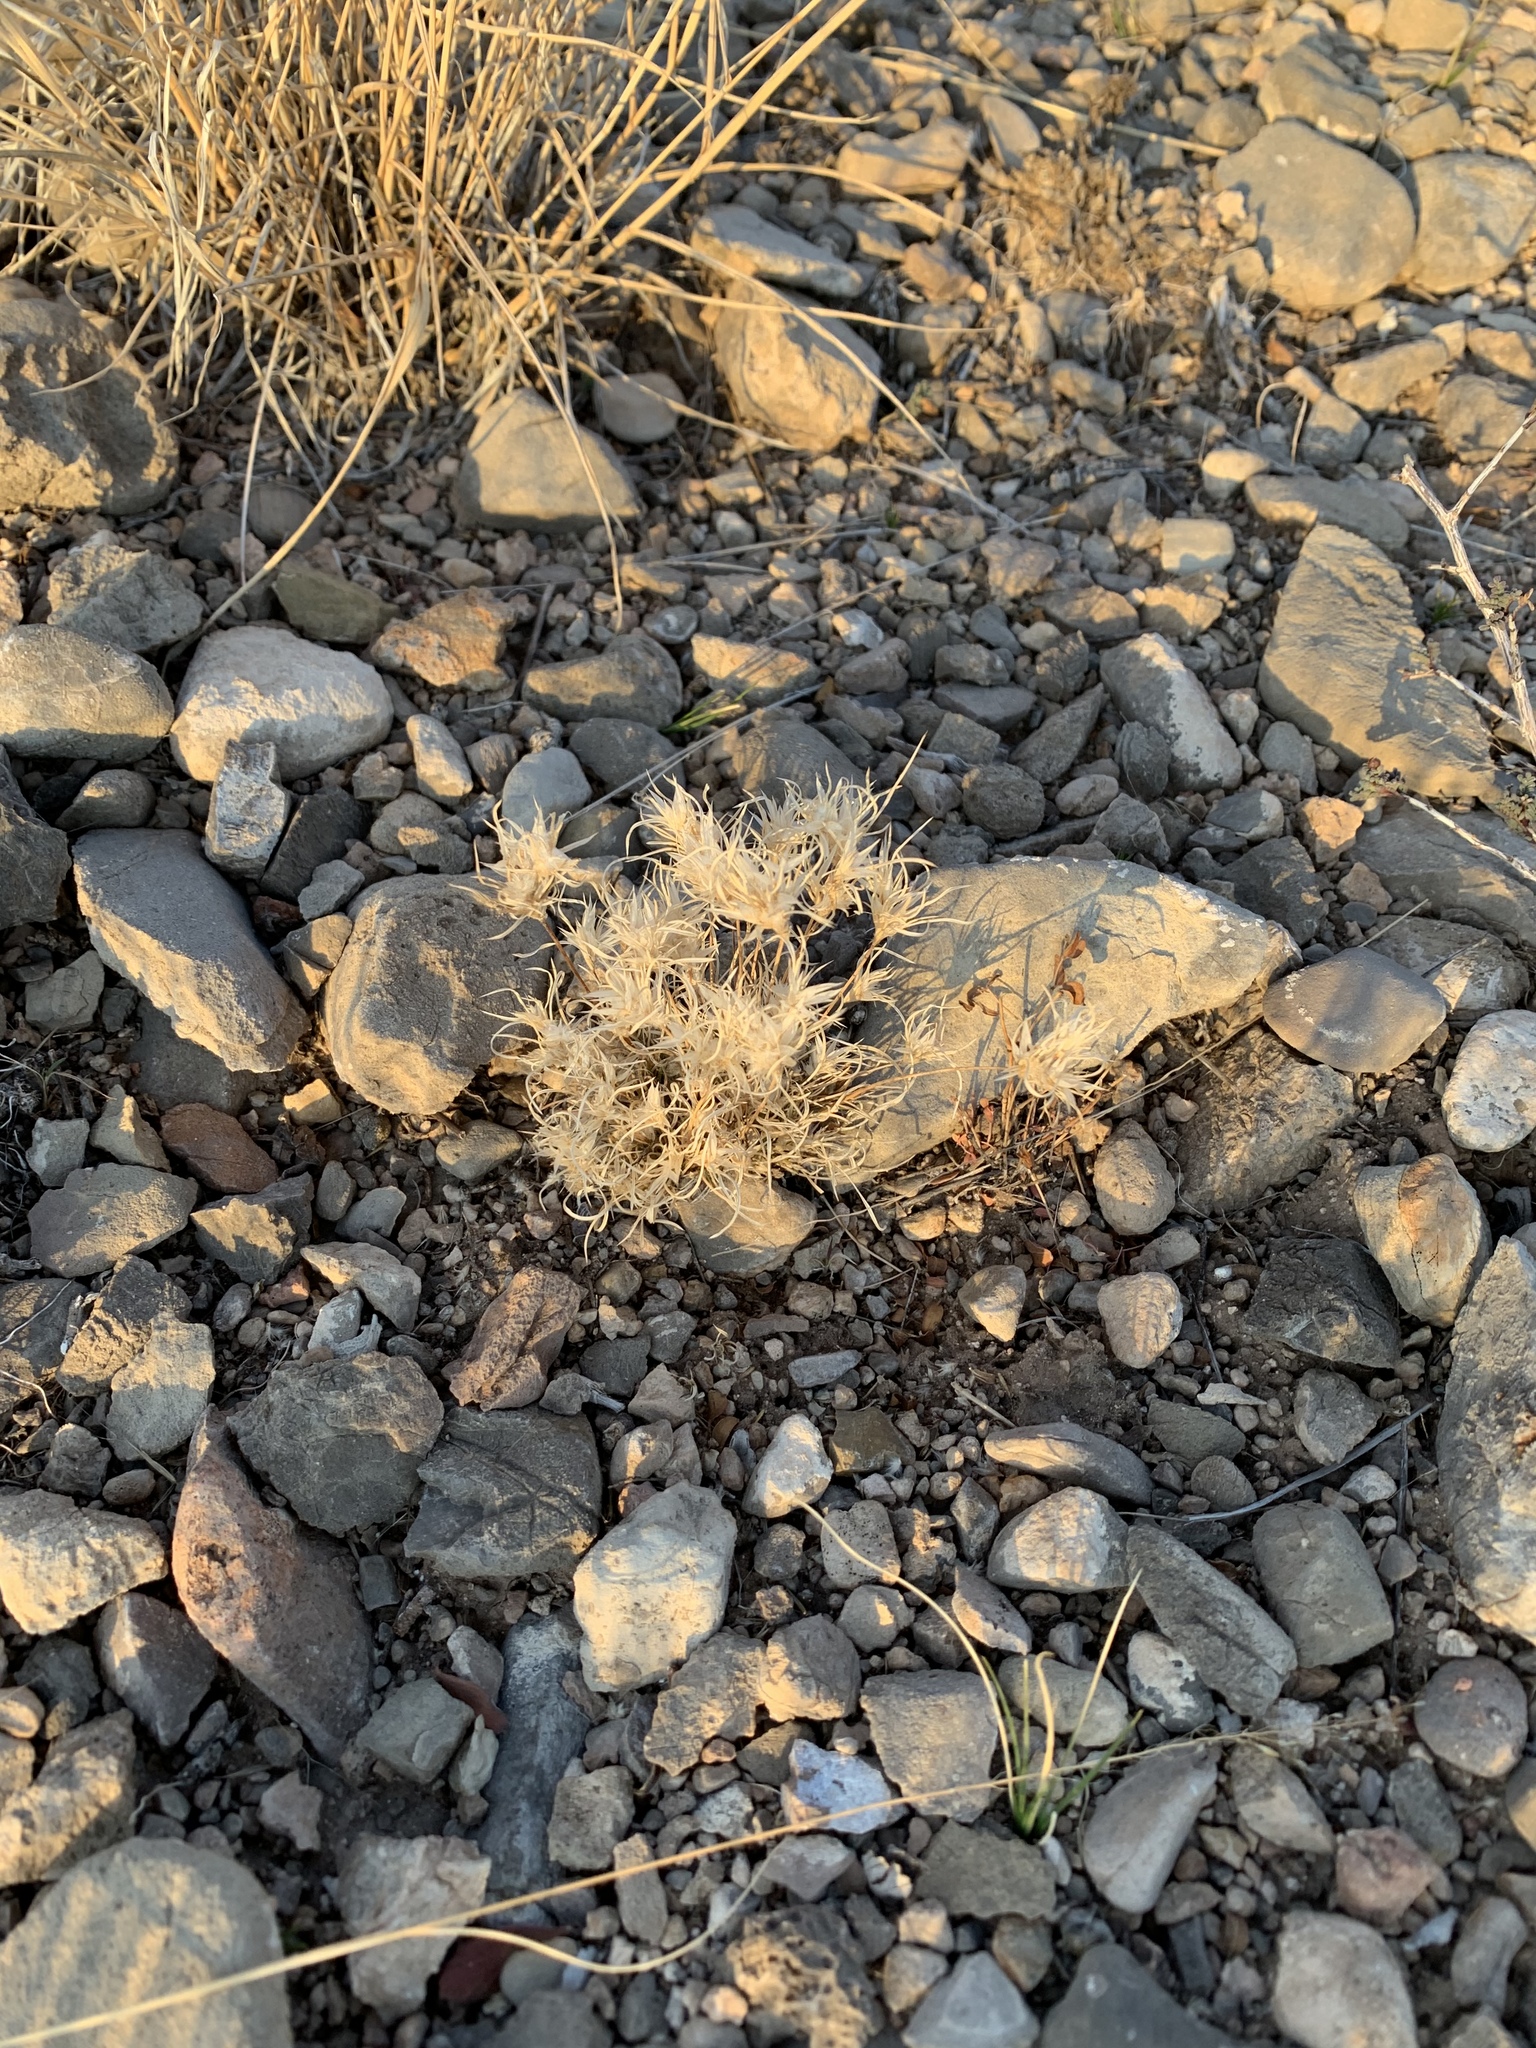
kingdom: Plantae
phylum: Tracheophyta
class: Liliopsida
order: Poales
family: Poaceae
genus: Dasyochloa
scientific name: Dasyochloa pulchella
